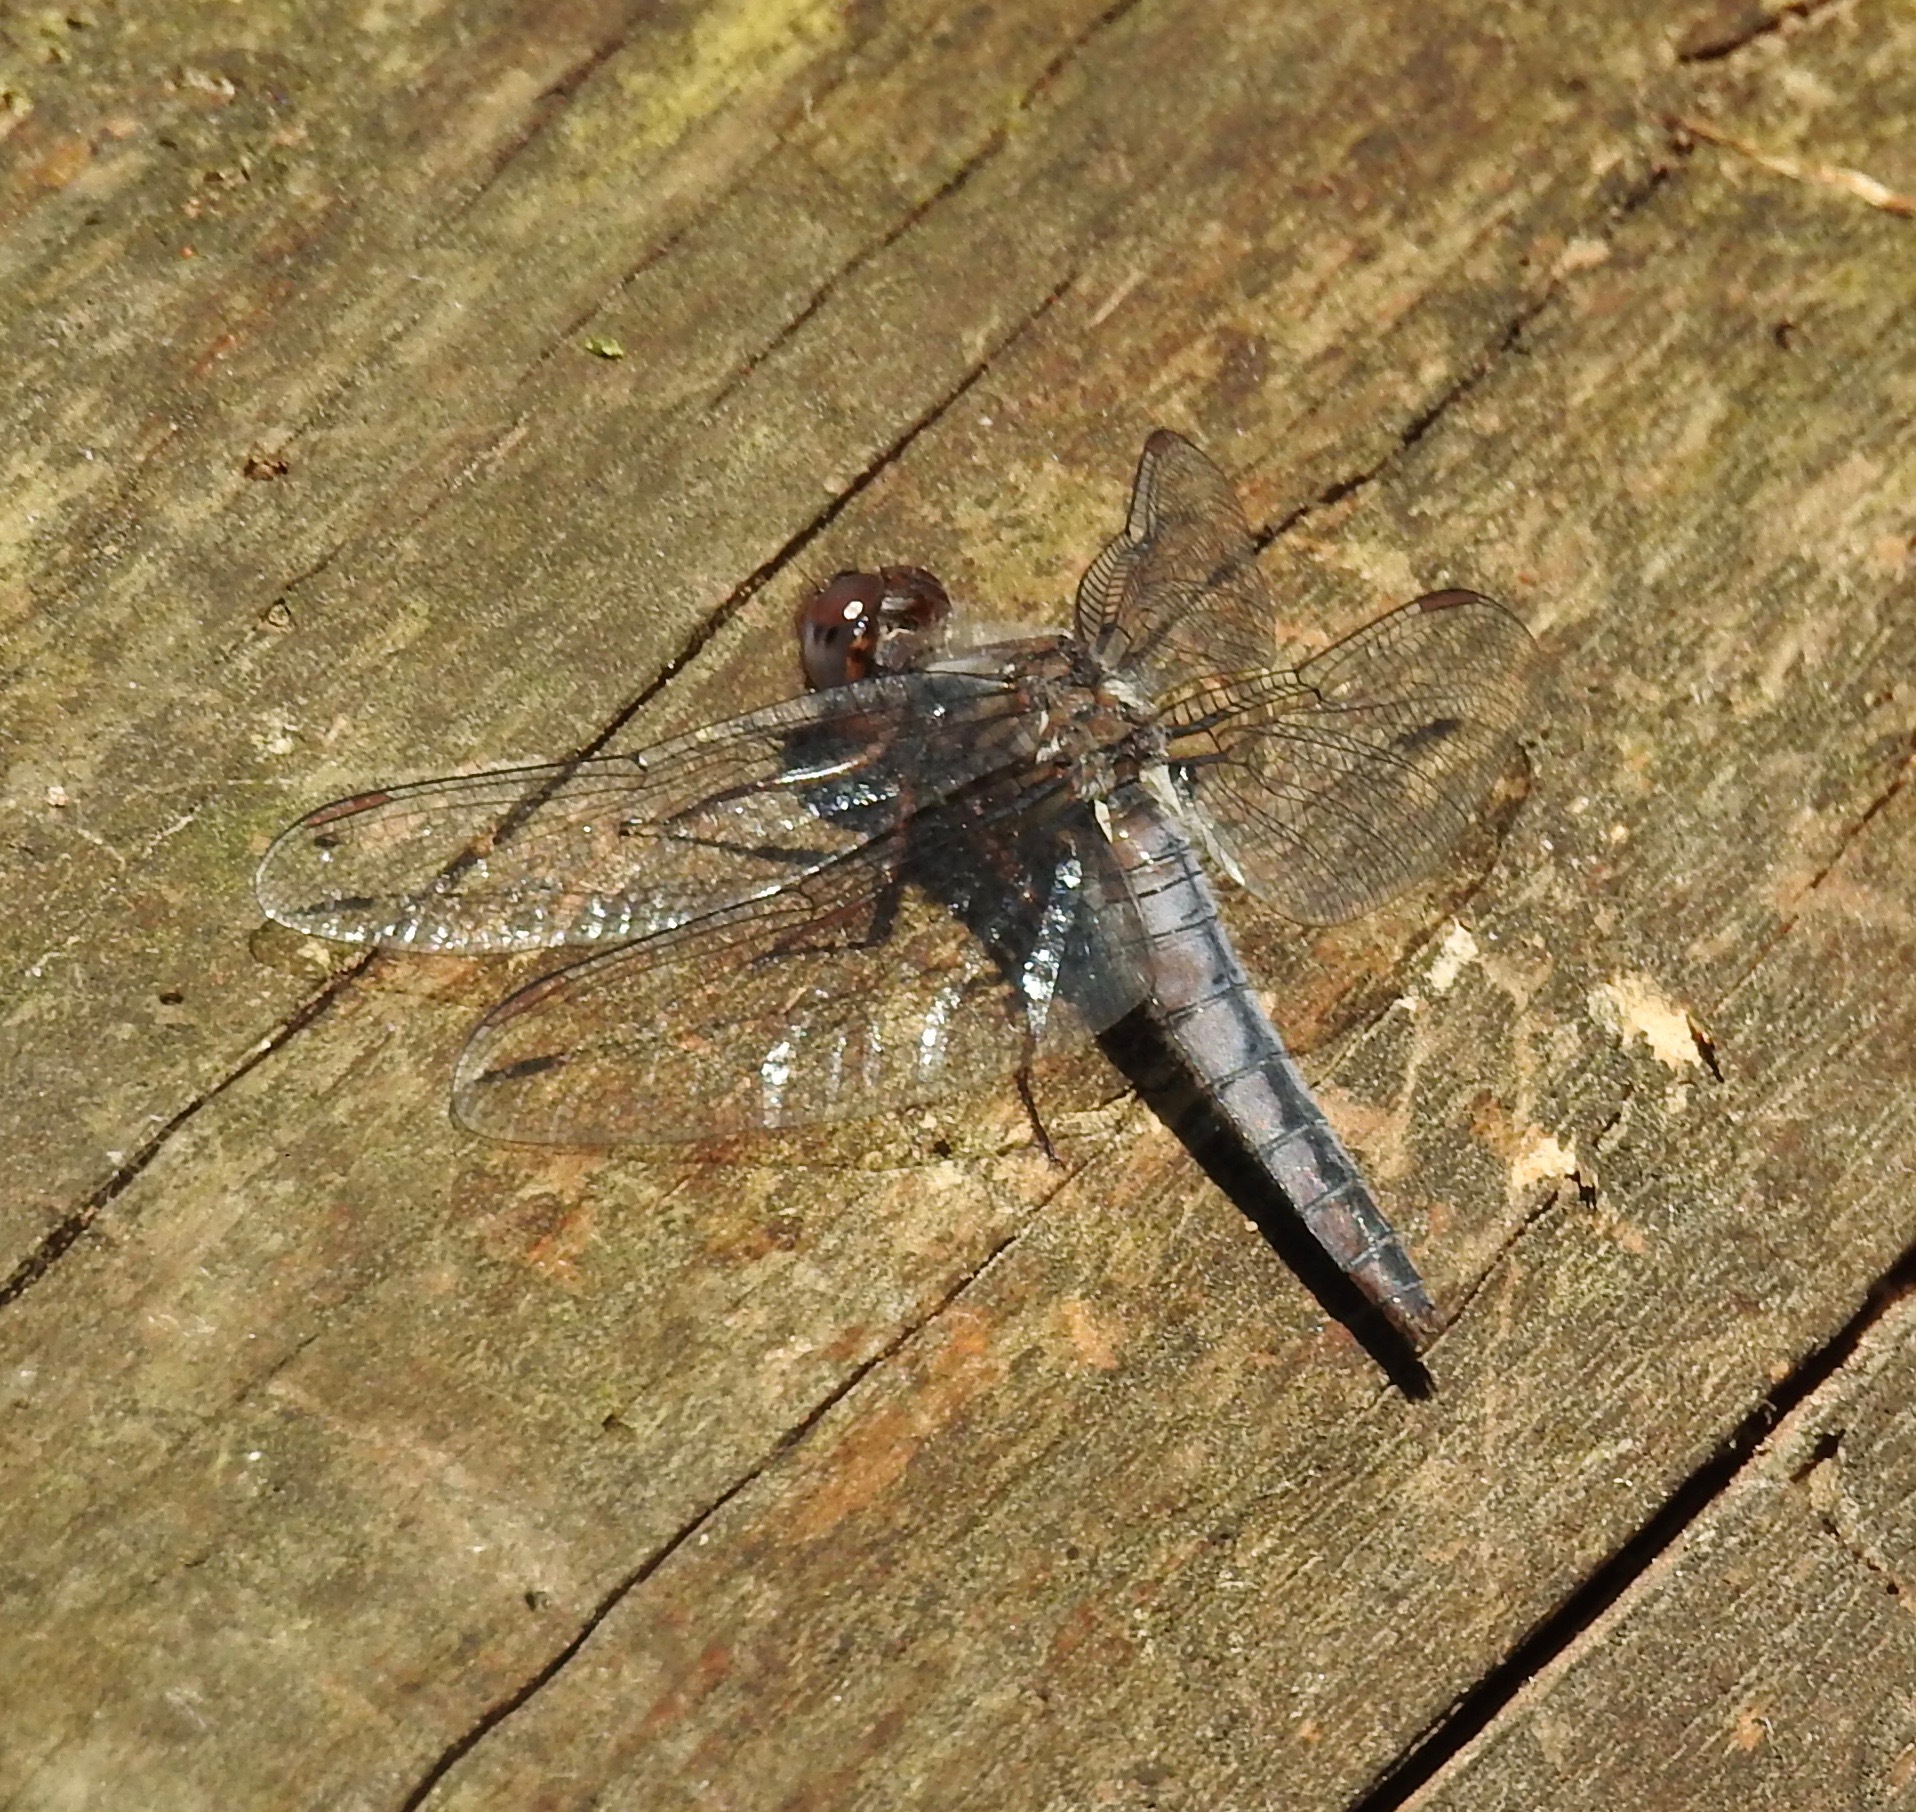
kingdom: Animalia
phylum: Arthropoda
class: Insecta
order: Odonata
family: Libellulidae
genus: Ladona
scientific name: Ladona deplanata
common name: Blue corporal
